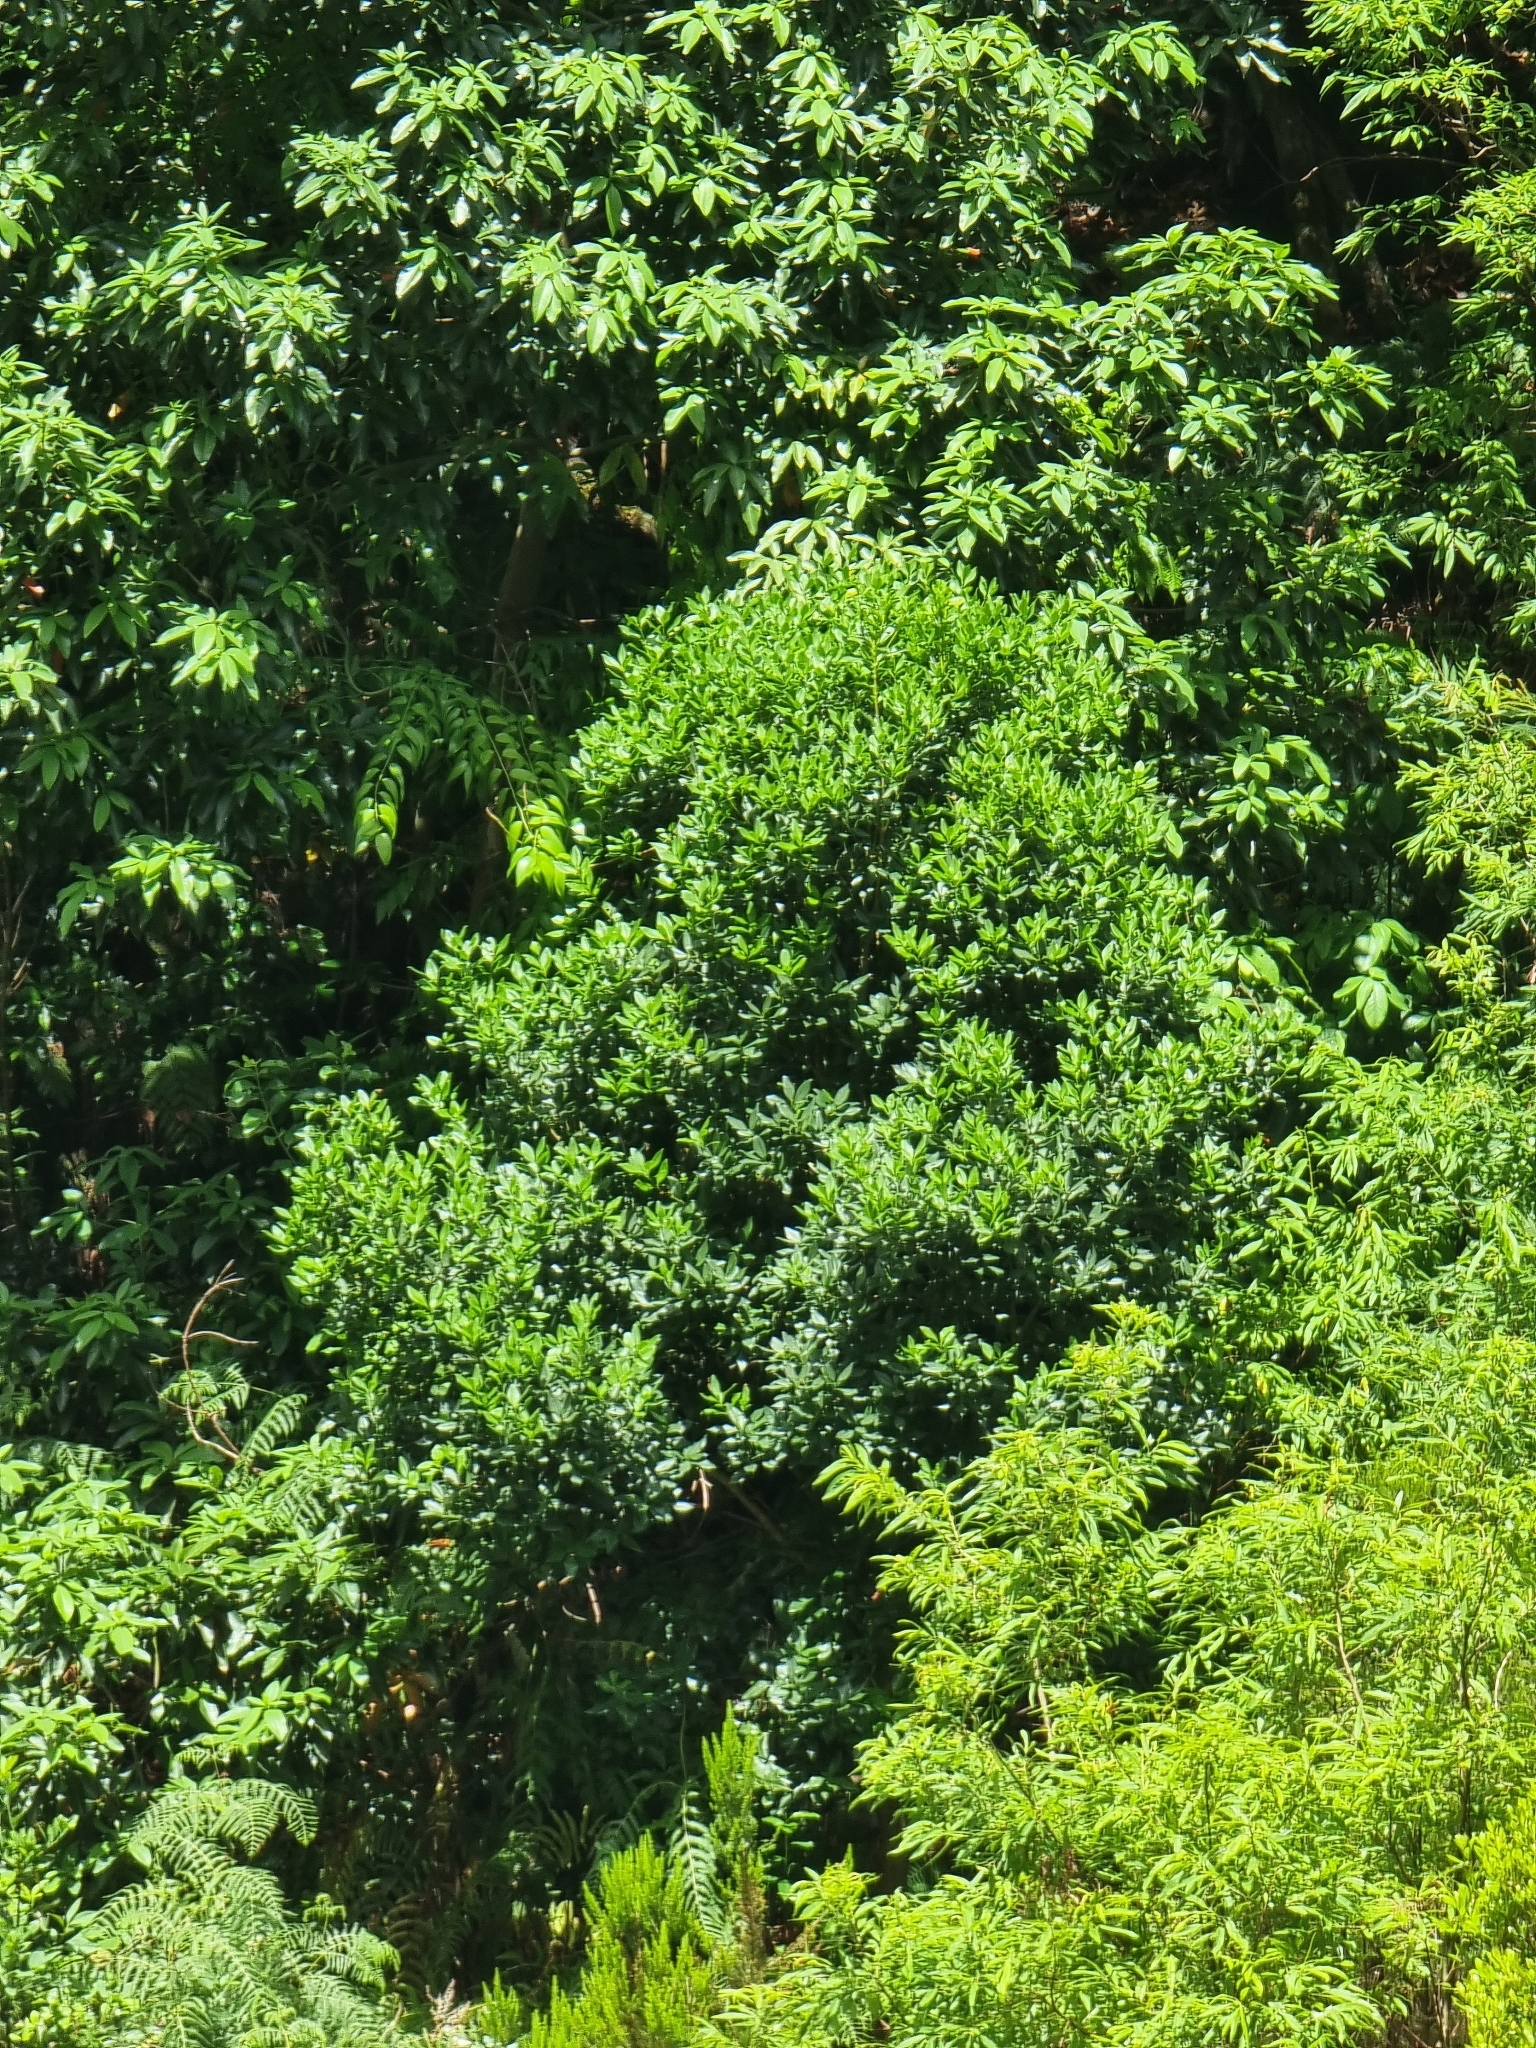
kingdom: Plantae
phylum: Tracheophyta
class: Magnoliopsida
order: Lamiales
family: Oleaceae
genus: Picconia
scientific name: Picconia excelsa
